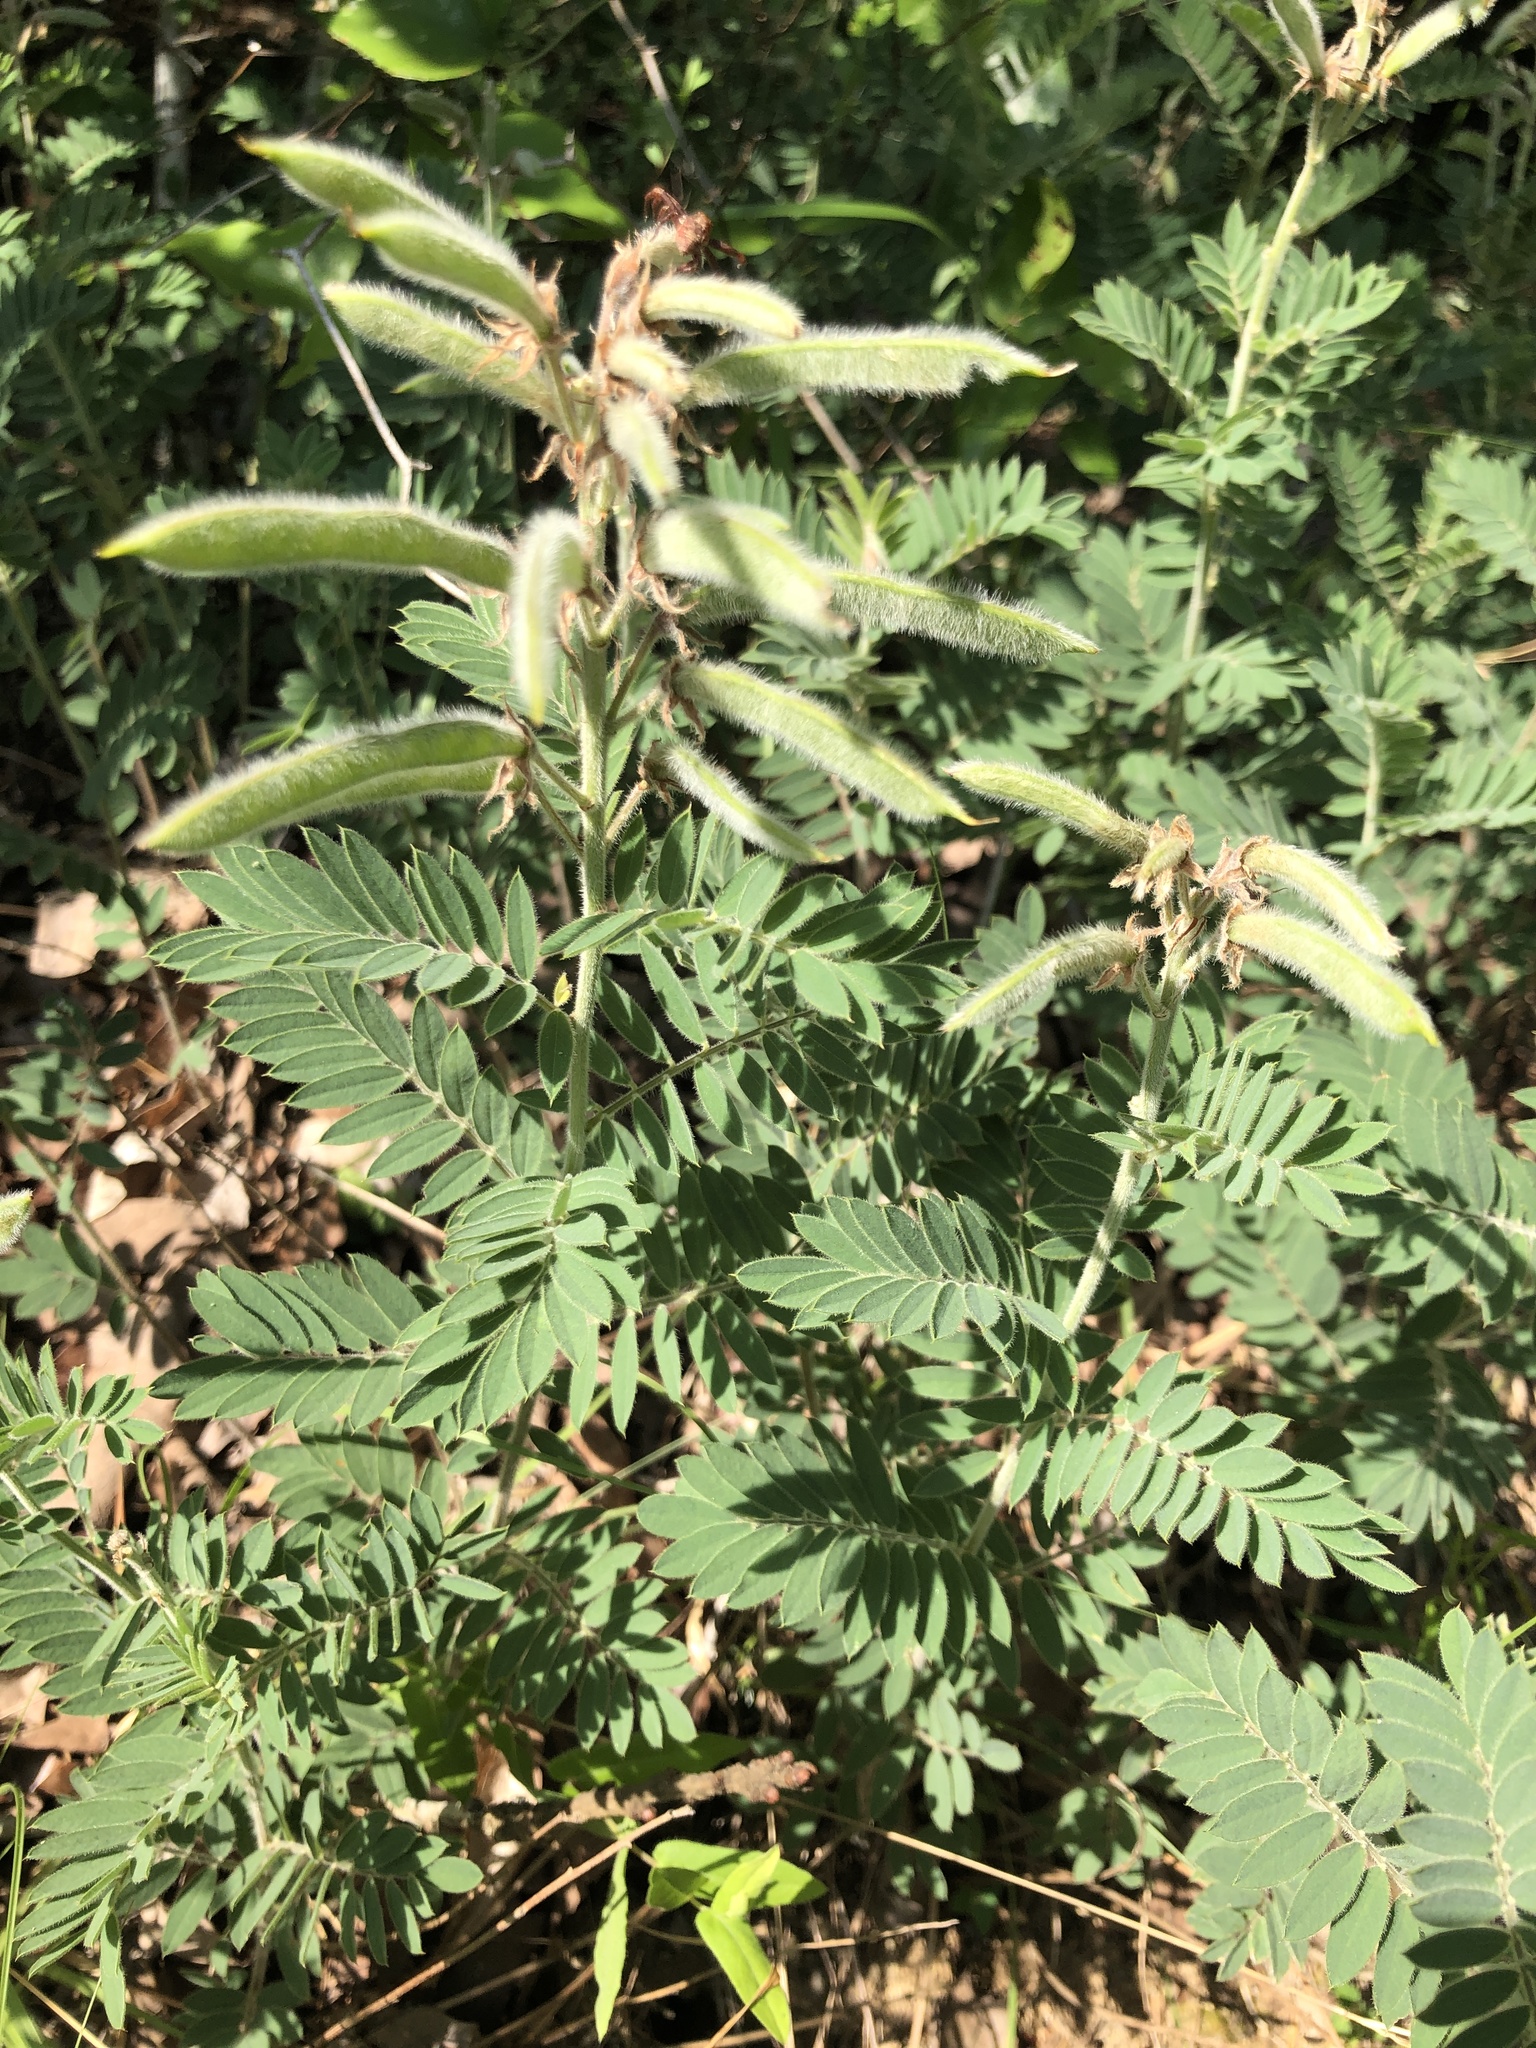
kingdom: Plantae
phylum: Tracheophyta
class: Magnoliopsida
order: Fabales
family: Fabaceae
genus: Tephrosia
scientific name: Tephrosia virginiana
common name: Rabbit-pea
